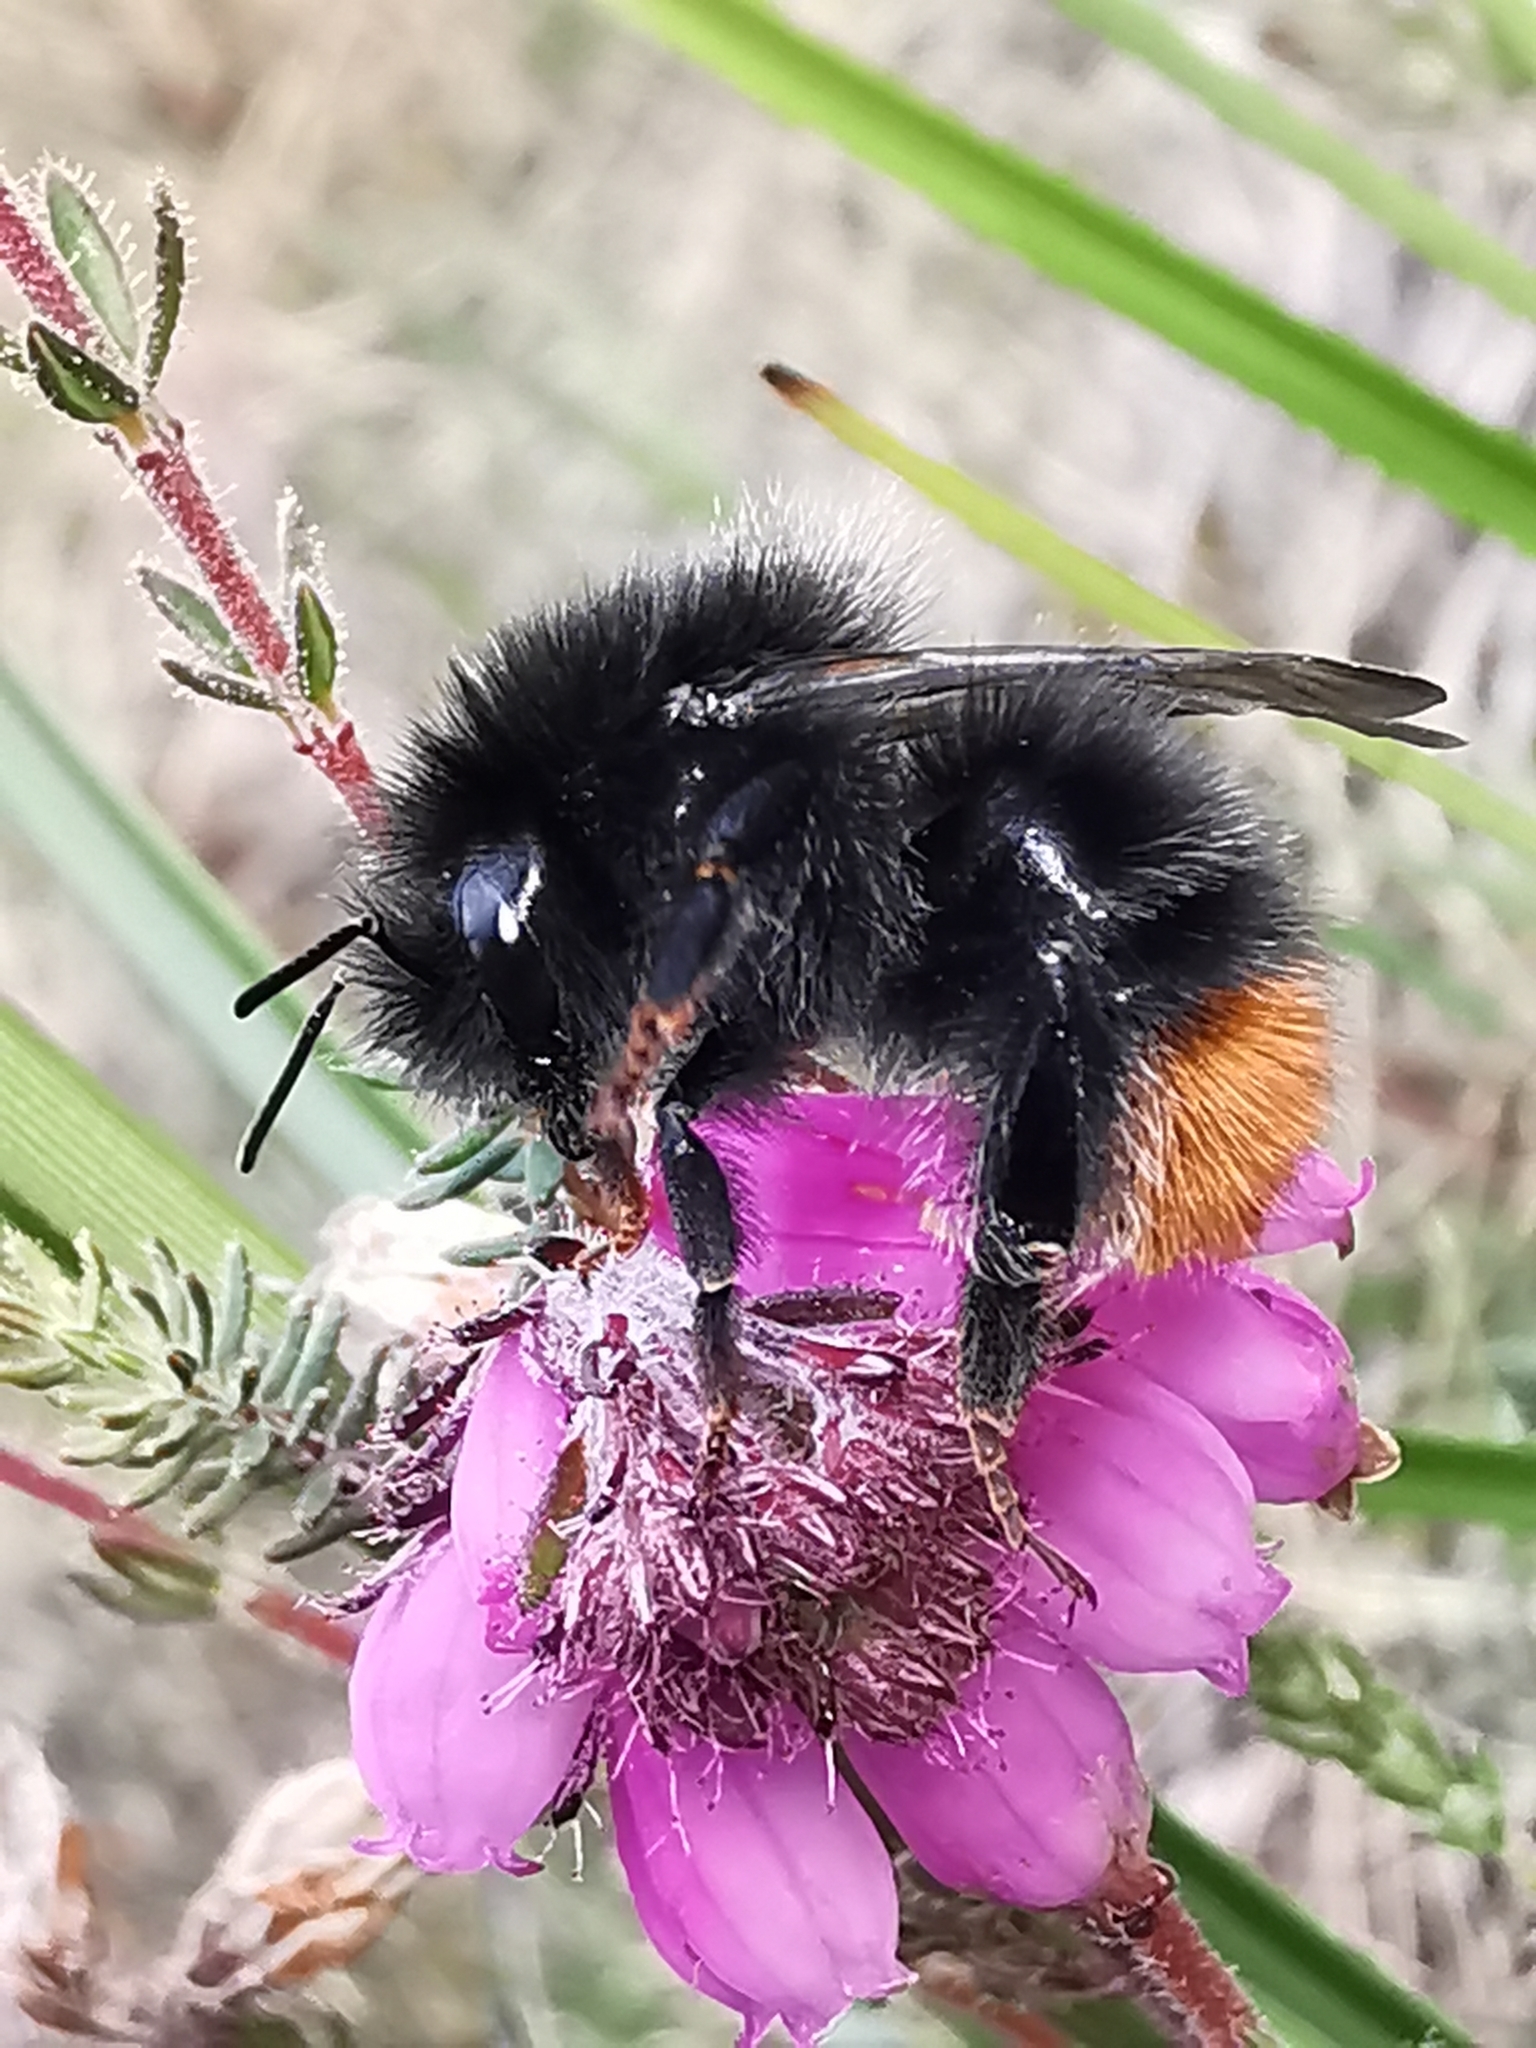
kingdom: Animalia
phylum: Arthropoda
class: Insecta
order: Hymenoptera
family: Apidae
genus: Bombus
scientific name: Bombus wurflenii
